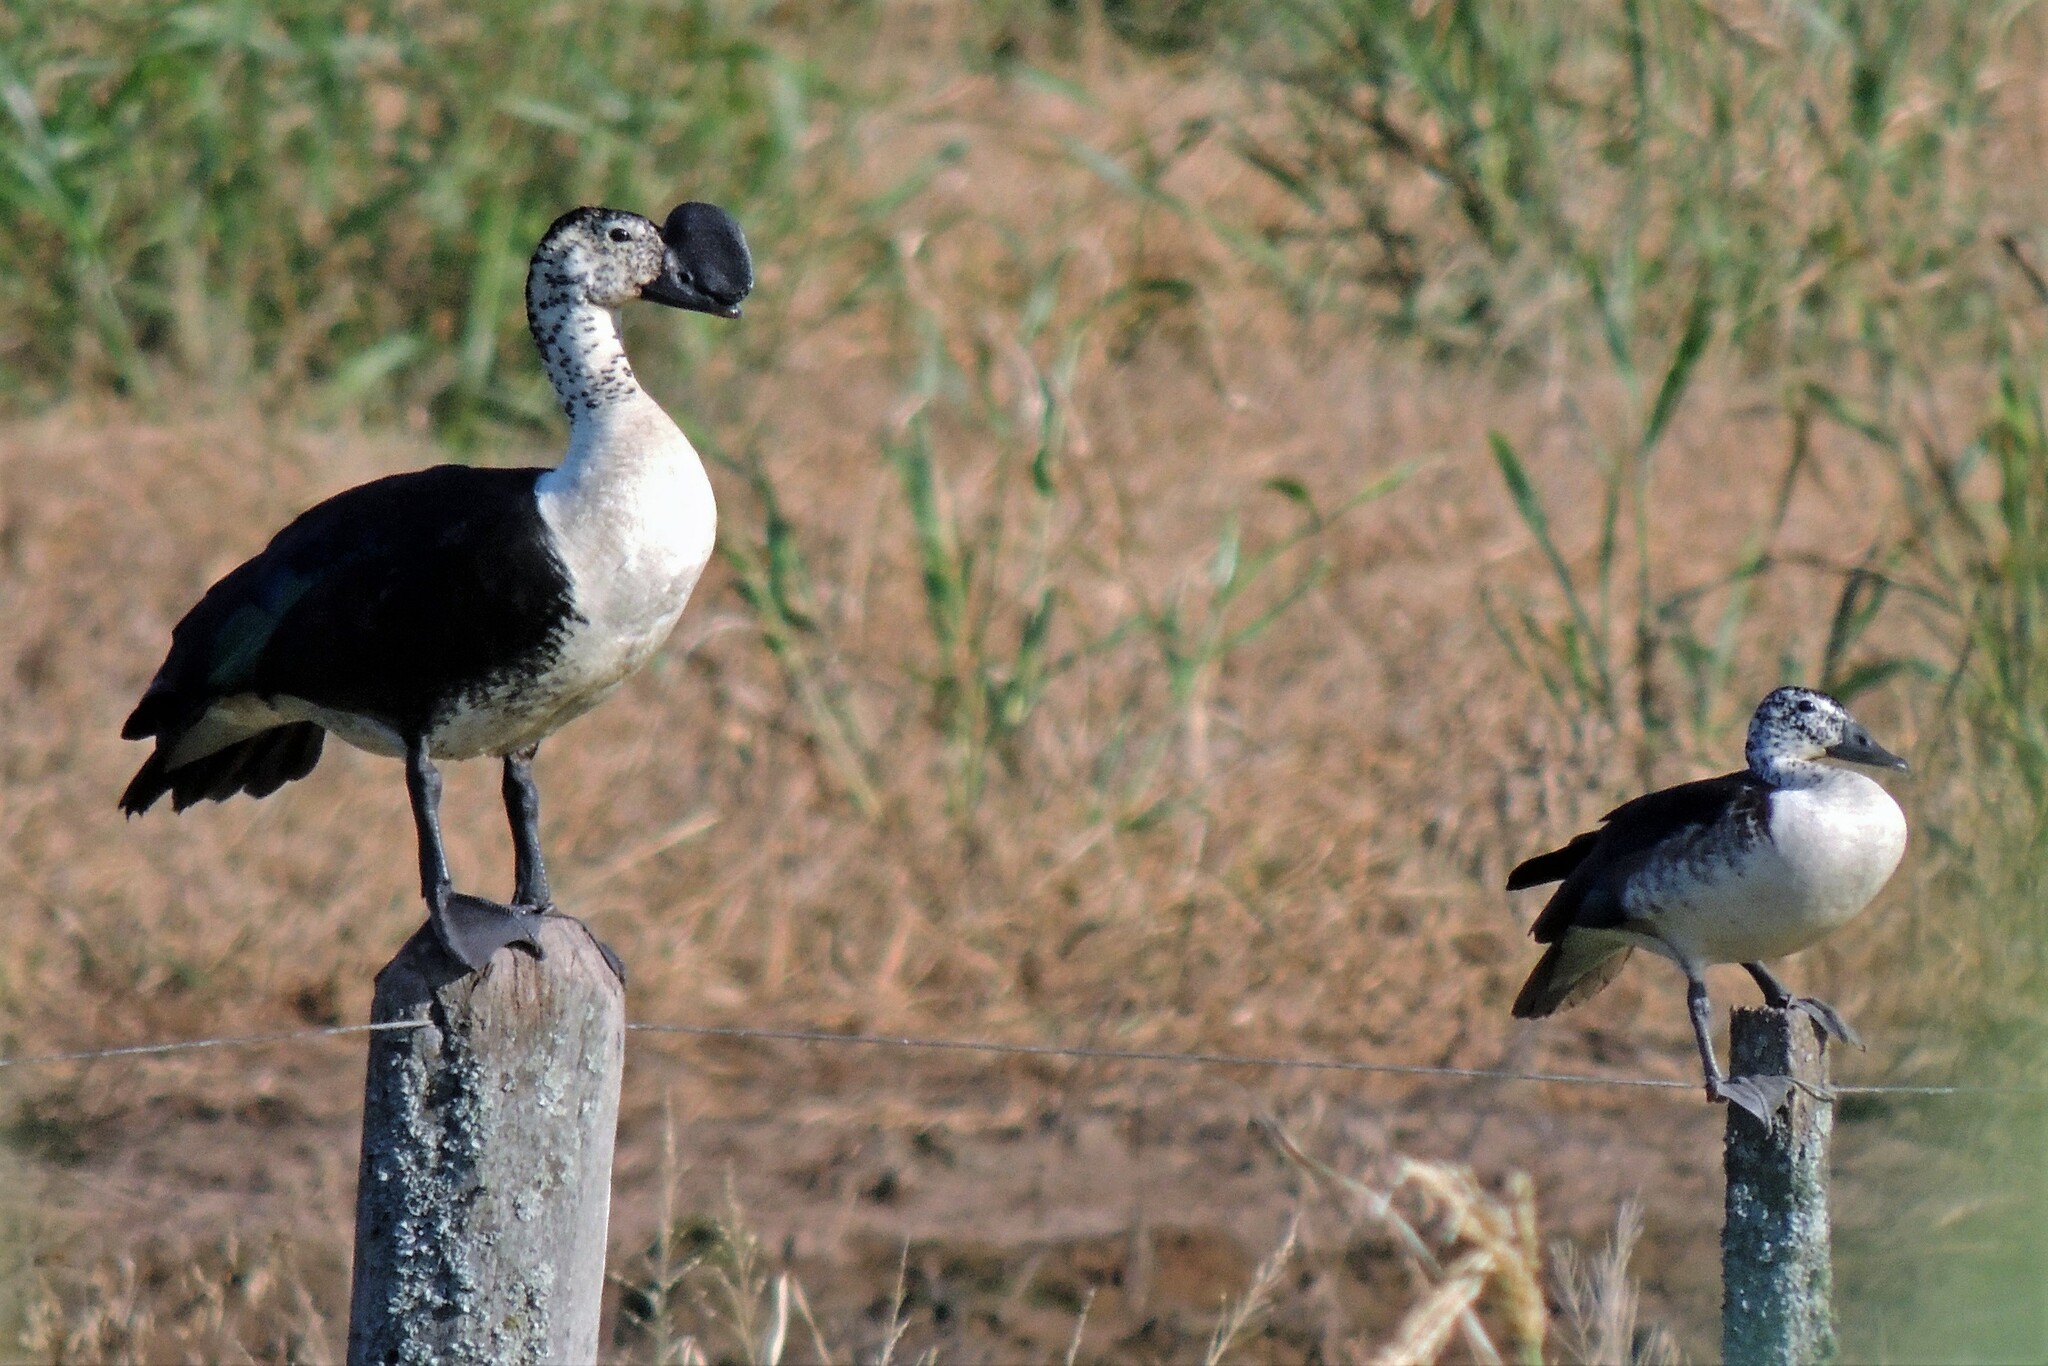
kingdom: Animalia
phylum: Chordata
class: Aves
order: Anseriformes
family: Anatidae
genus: Sarkidiornis
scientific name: Sarkidiornis sylvicola
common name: Comb duck
